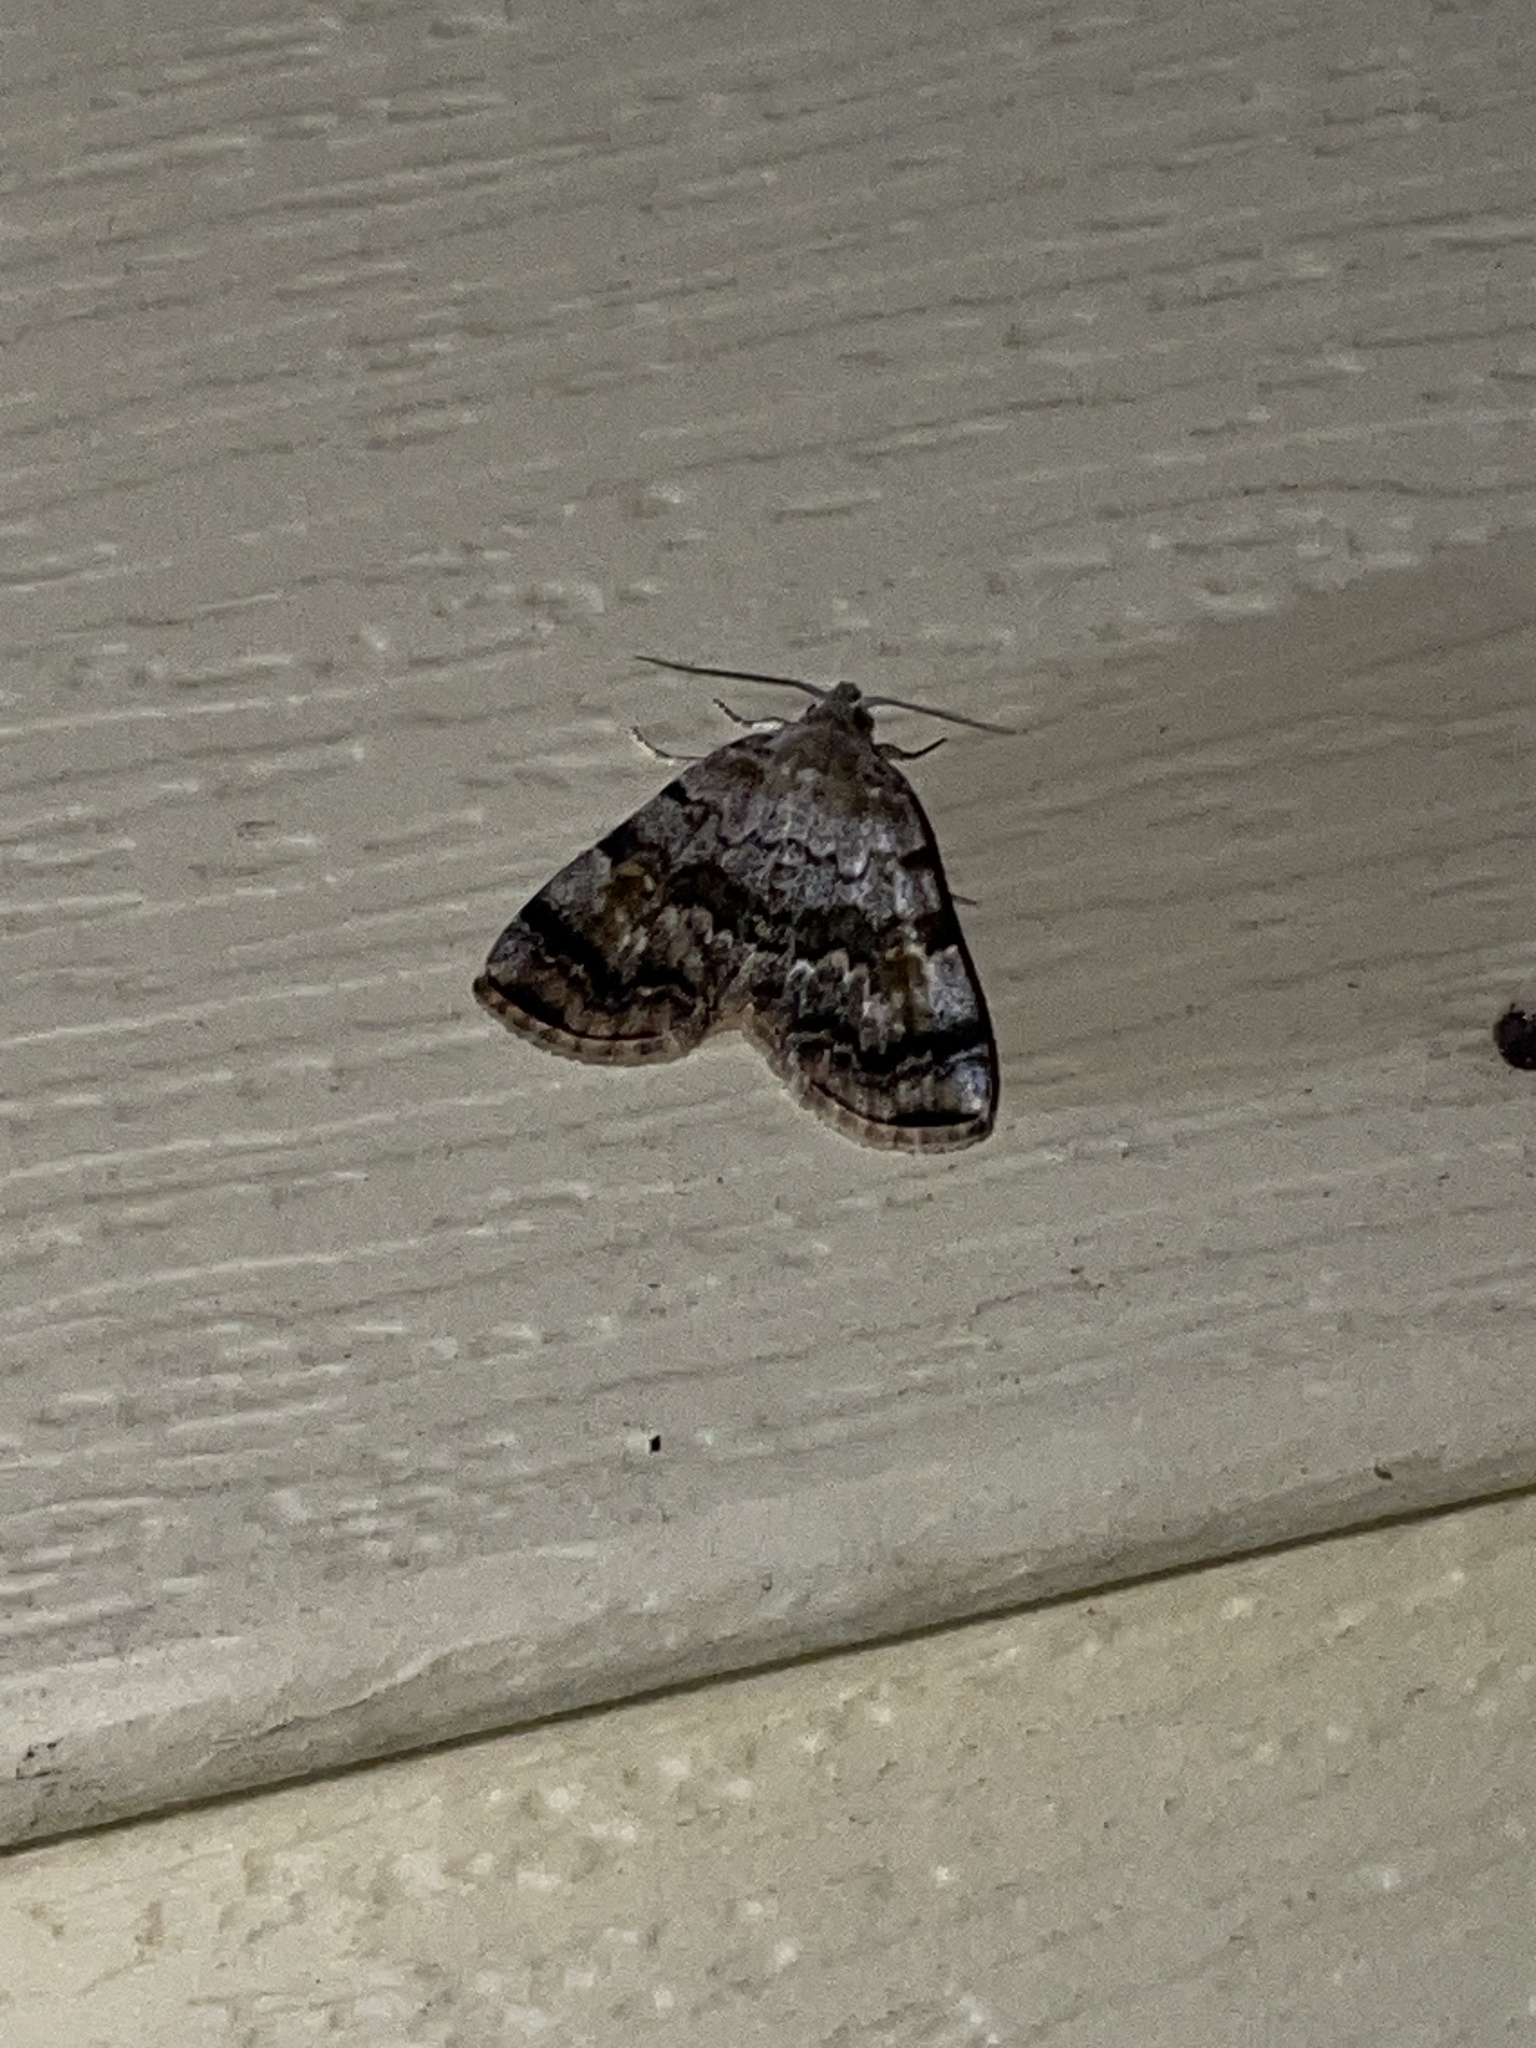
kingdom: Animalia
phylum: Arthropoda
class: Insecta
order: Lepidoptera
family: Erebidae
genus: Idia
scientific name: Idia americalis
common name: American idia moth
